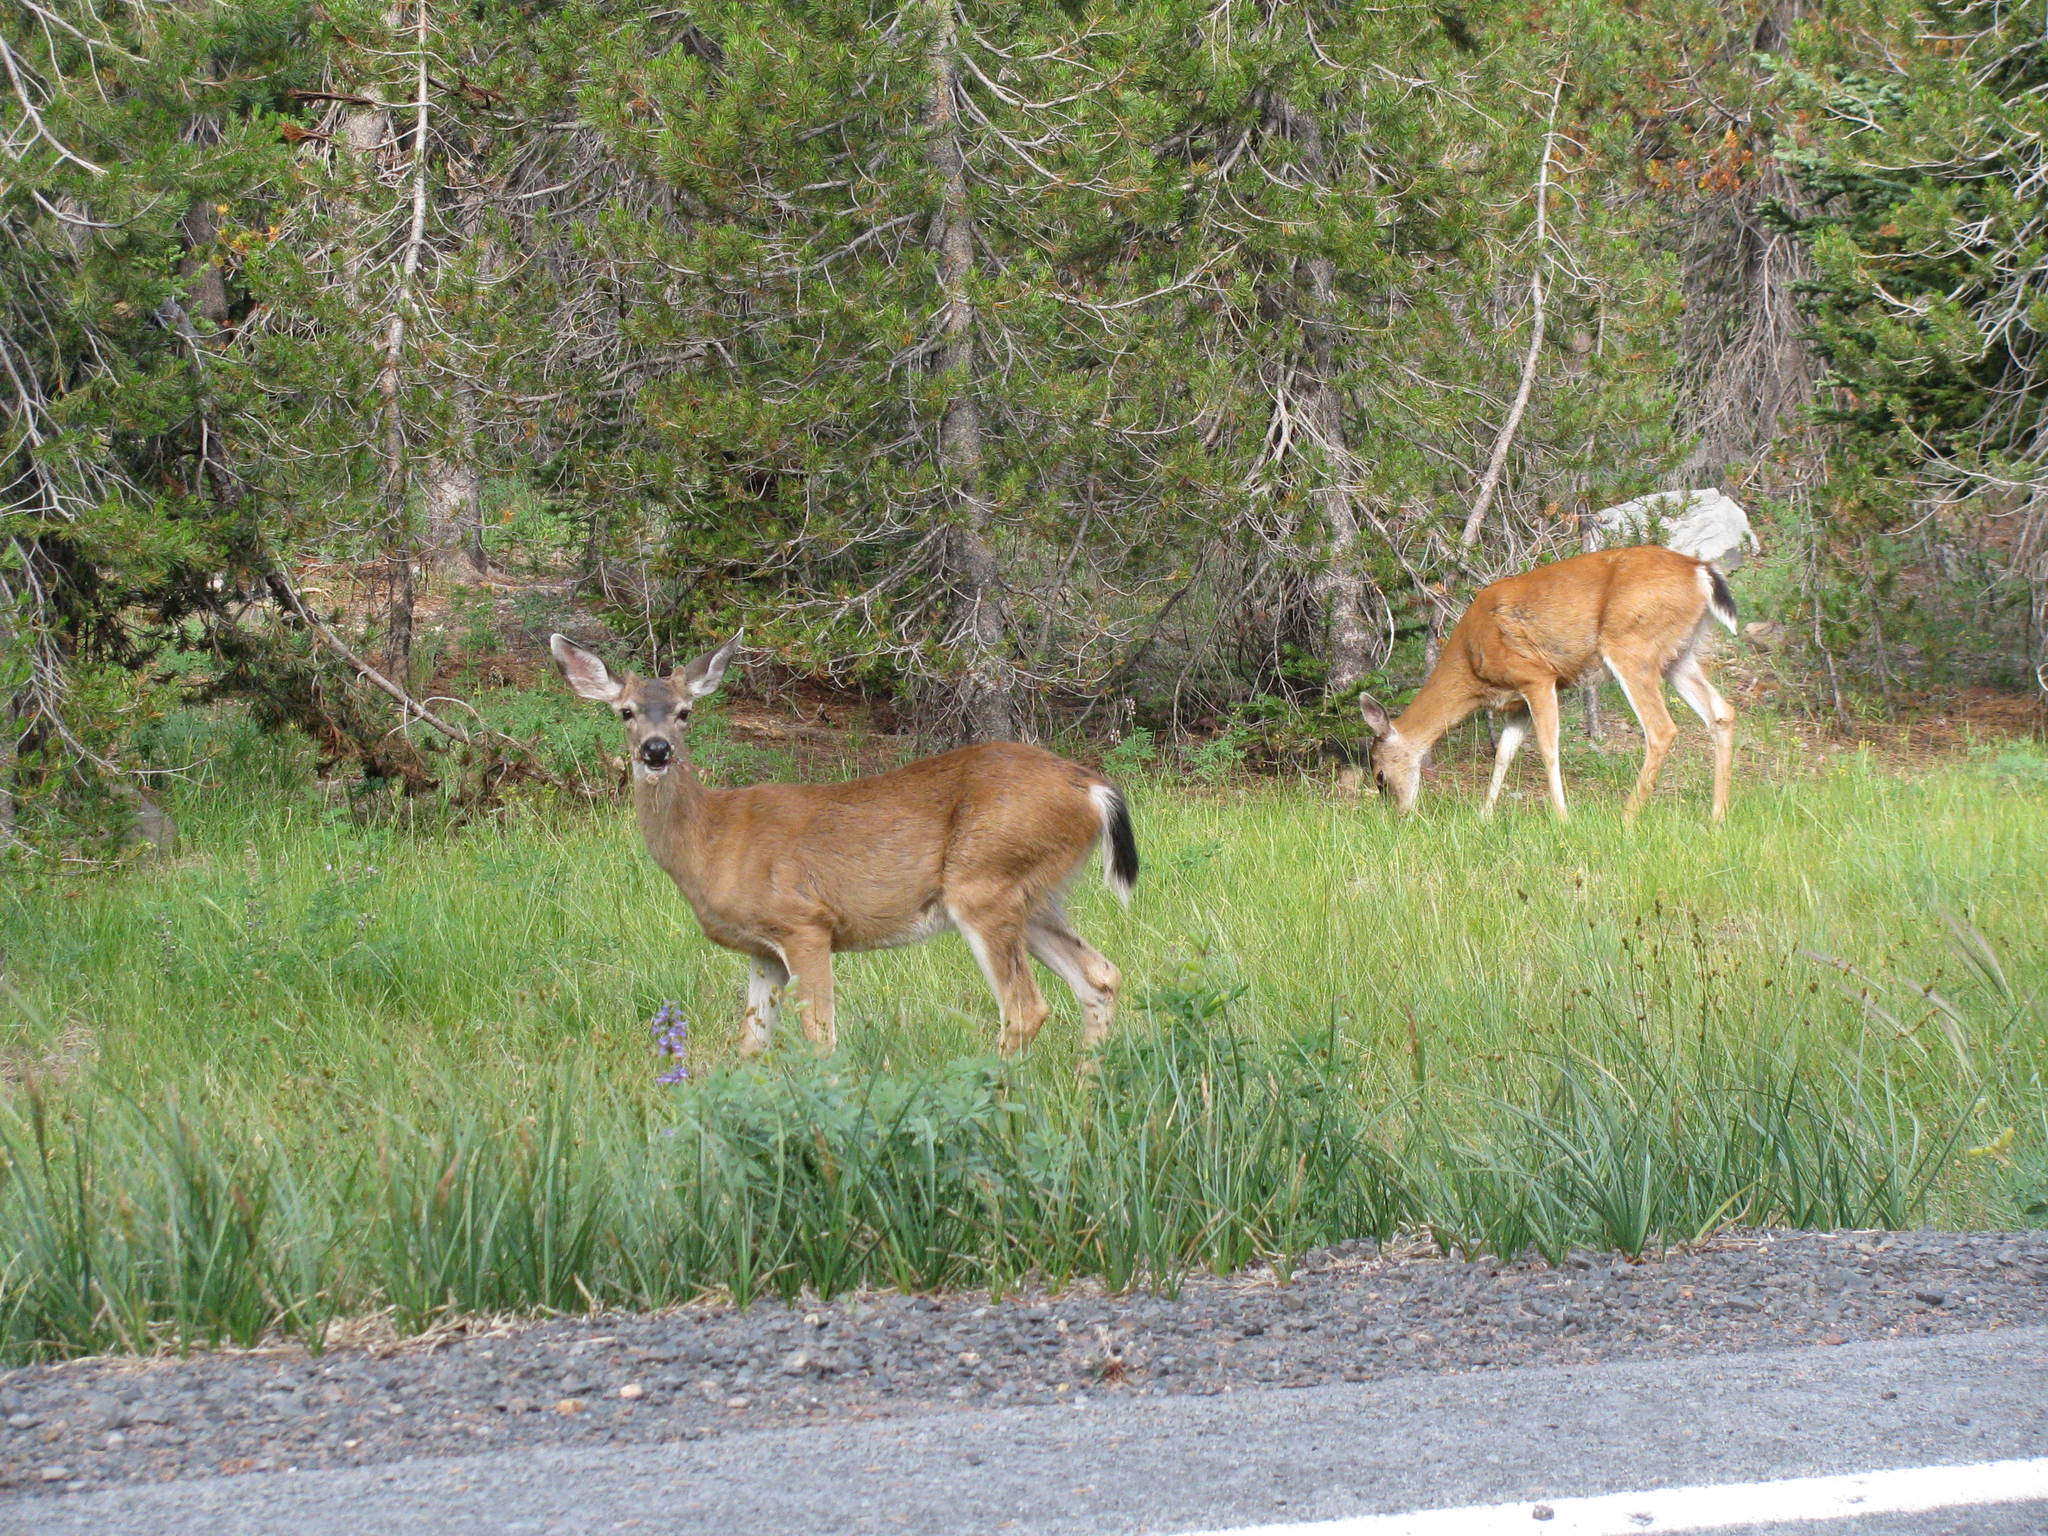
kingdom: Animalia
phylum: Chordata
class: Mammalia
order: Artiodactyla
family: Cervidae
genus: Odocoileus
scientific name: Odocoileus hemionus
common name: Mule deer
